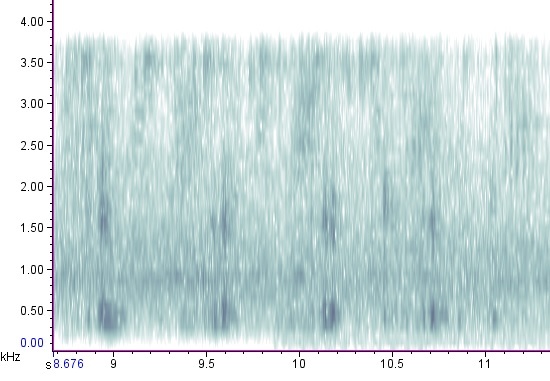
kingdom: Animalia
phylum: Chordata
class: Amphibia
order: Anura
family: Ranidae
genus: Lithobates
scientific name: Lithobates clamitans
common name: Green frog
